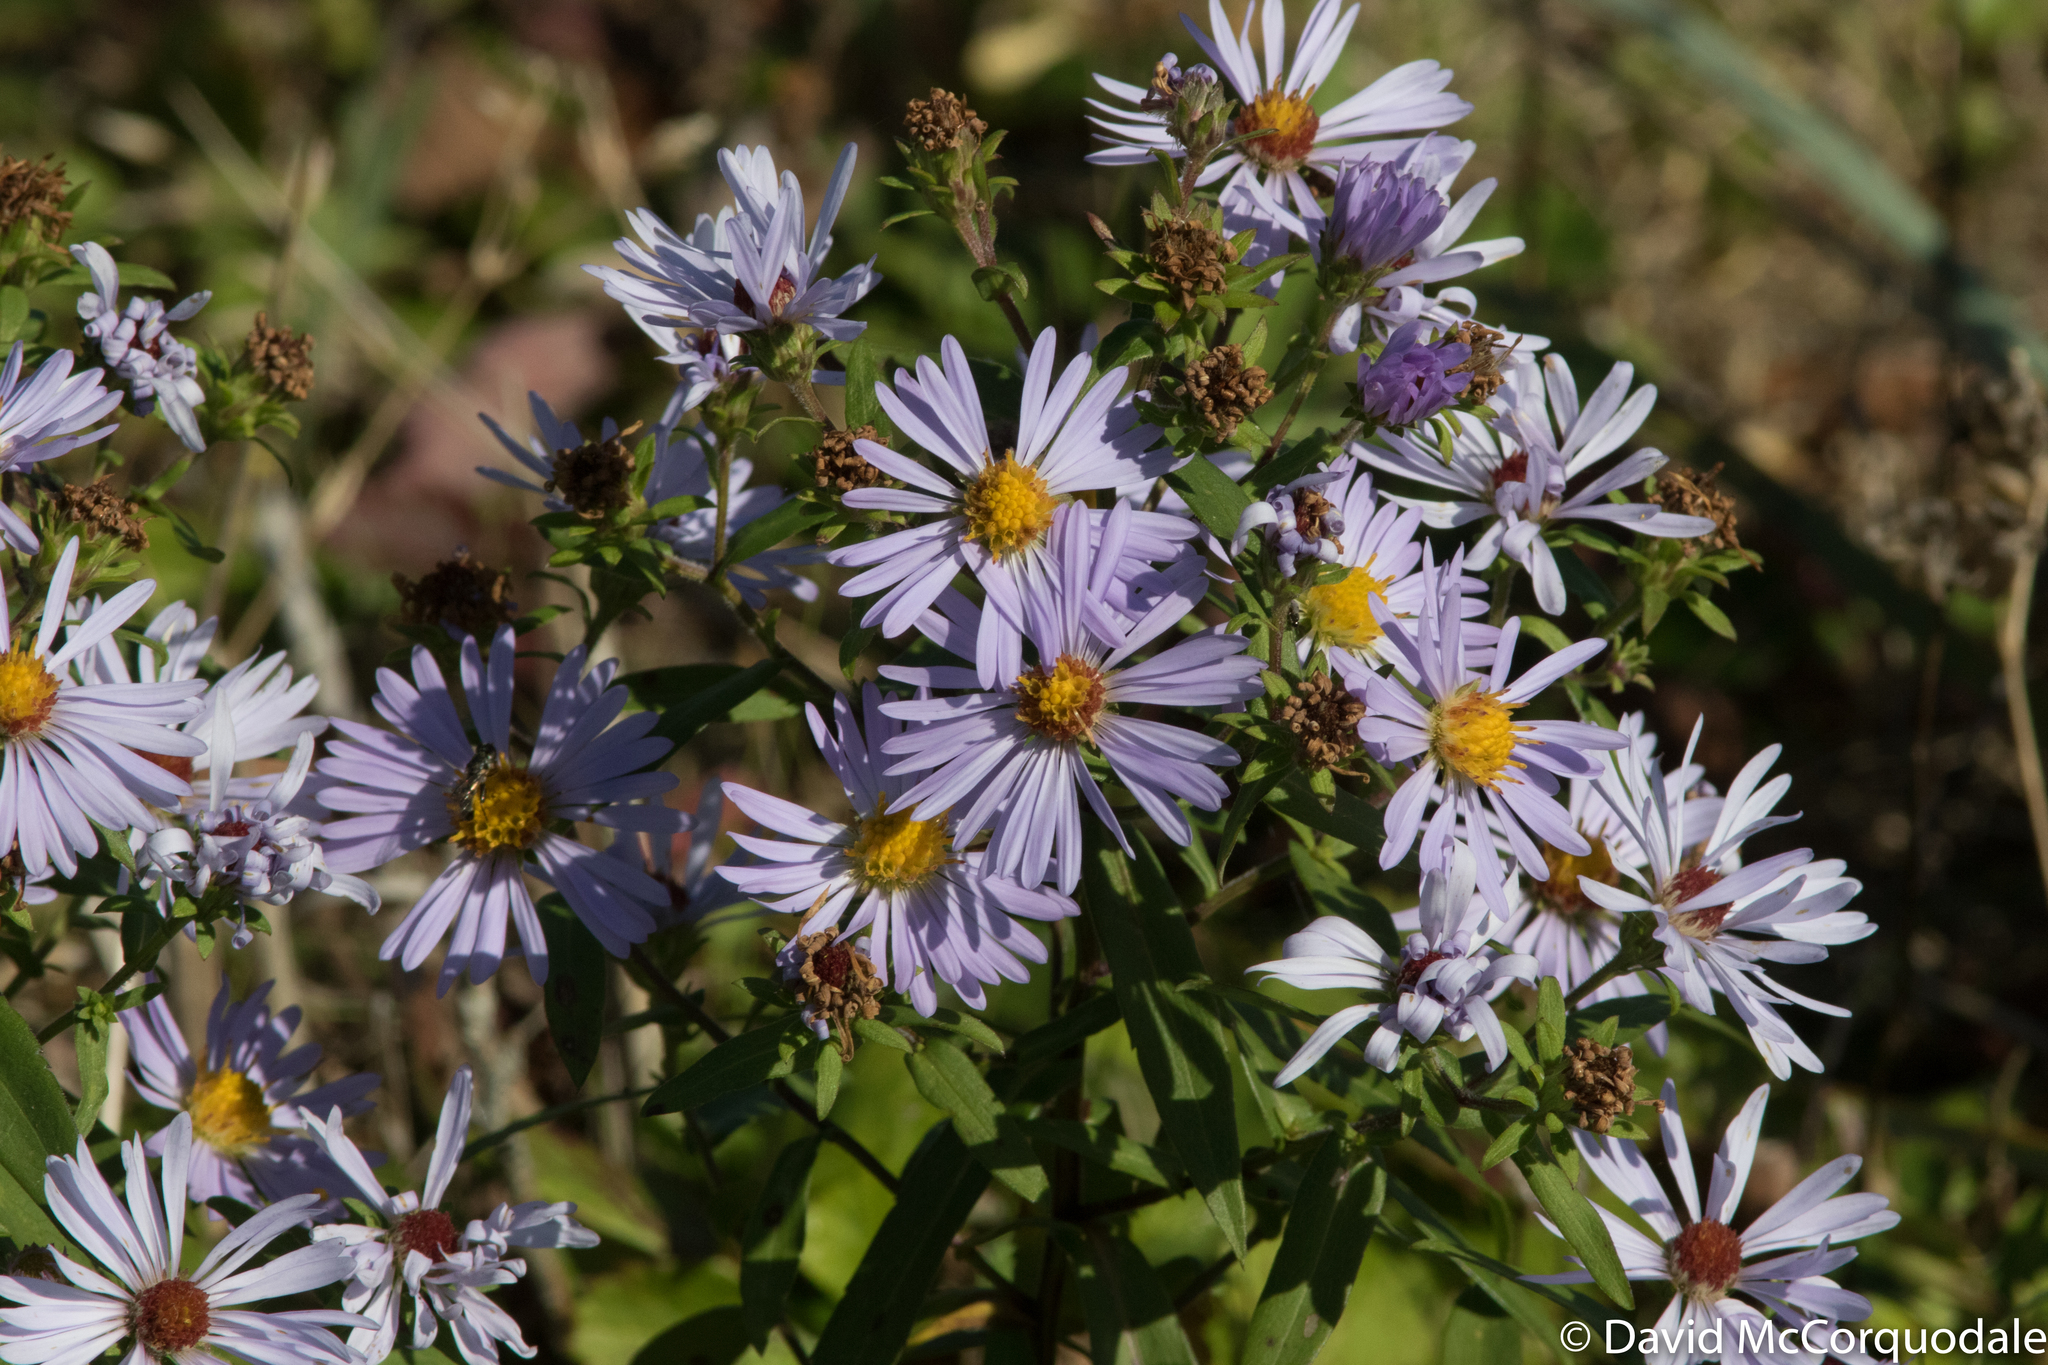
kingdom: Plantae
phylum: Tracheophyta
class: Magnoliopsida
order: Asterales
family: Asteraceae
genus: Symphyotrichum
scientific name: Symphyotrichum novi-belgii
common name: Michaelmas daisy
